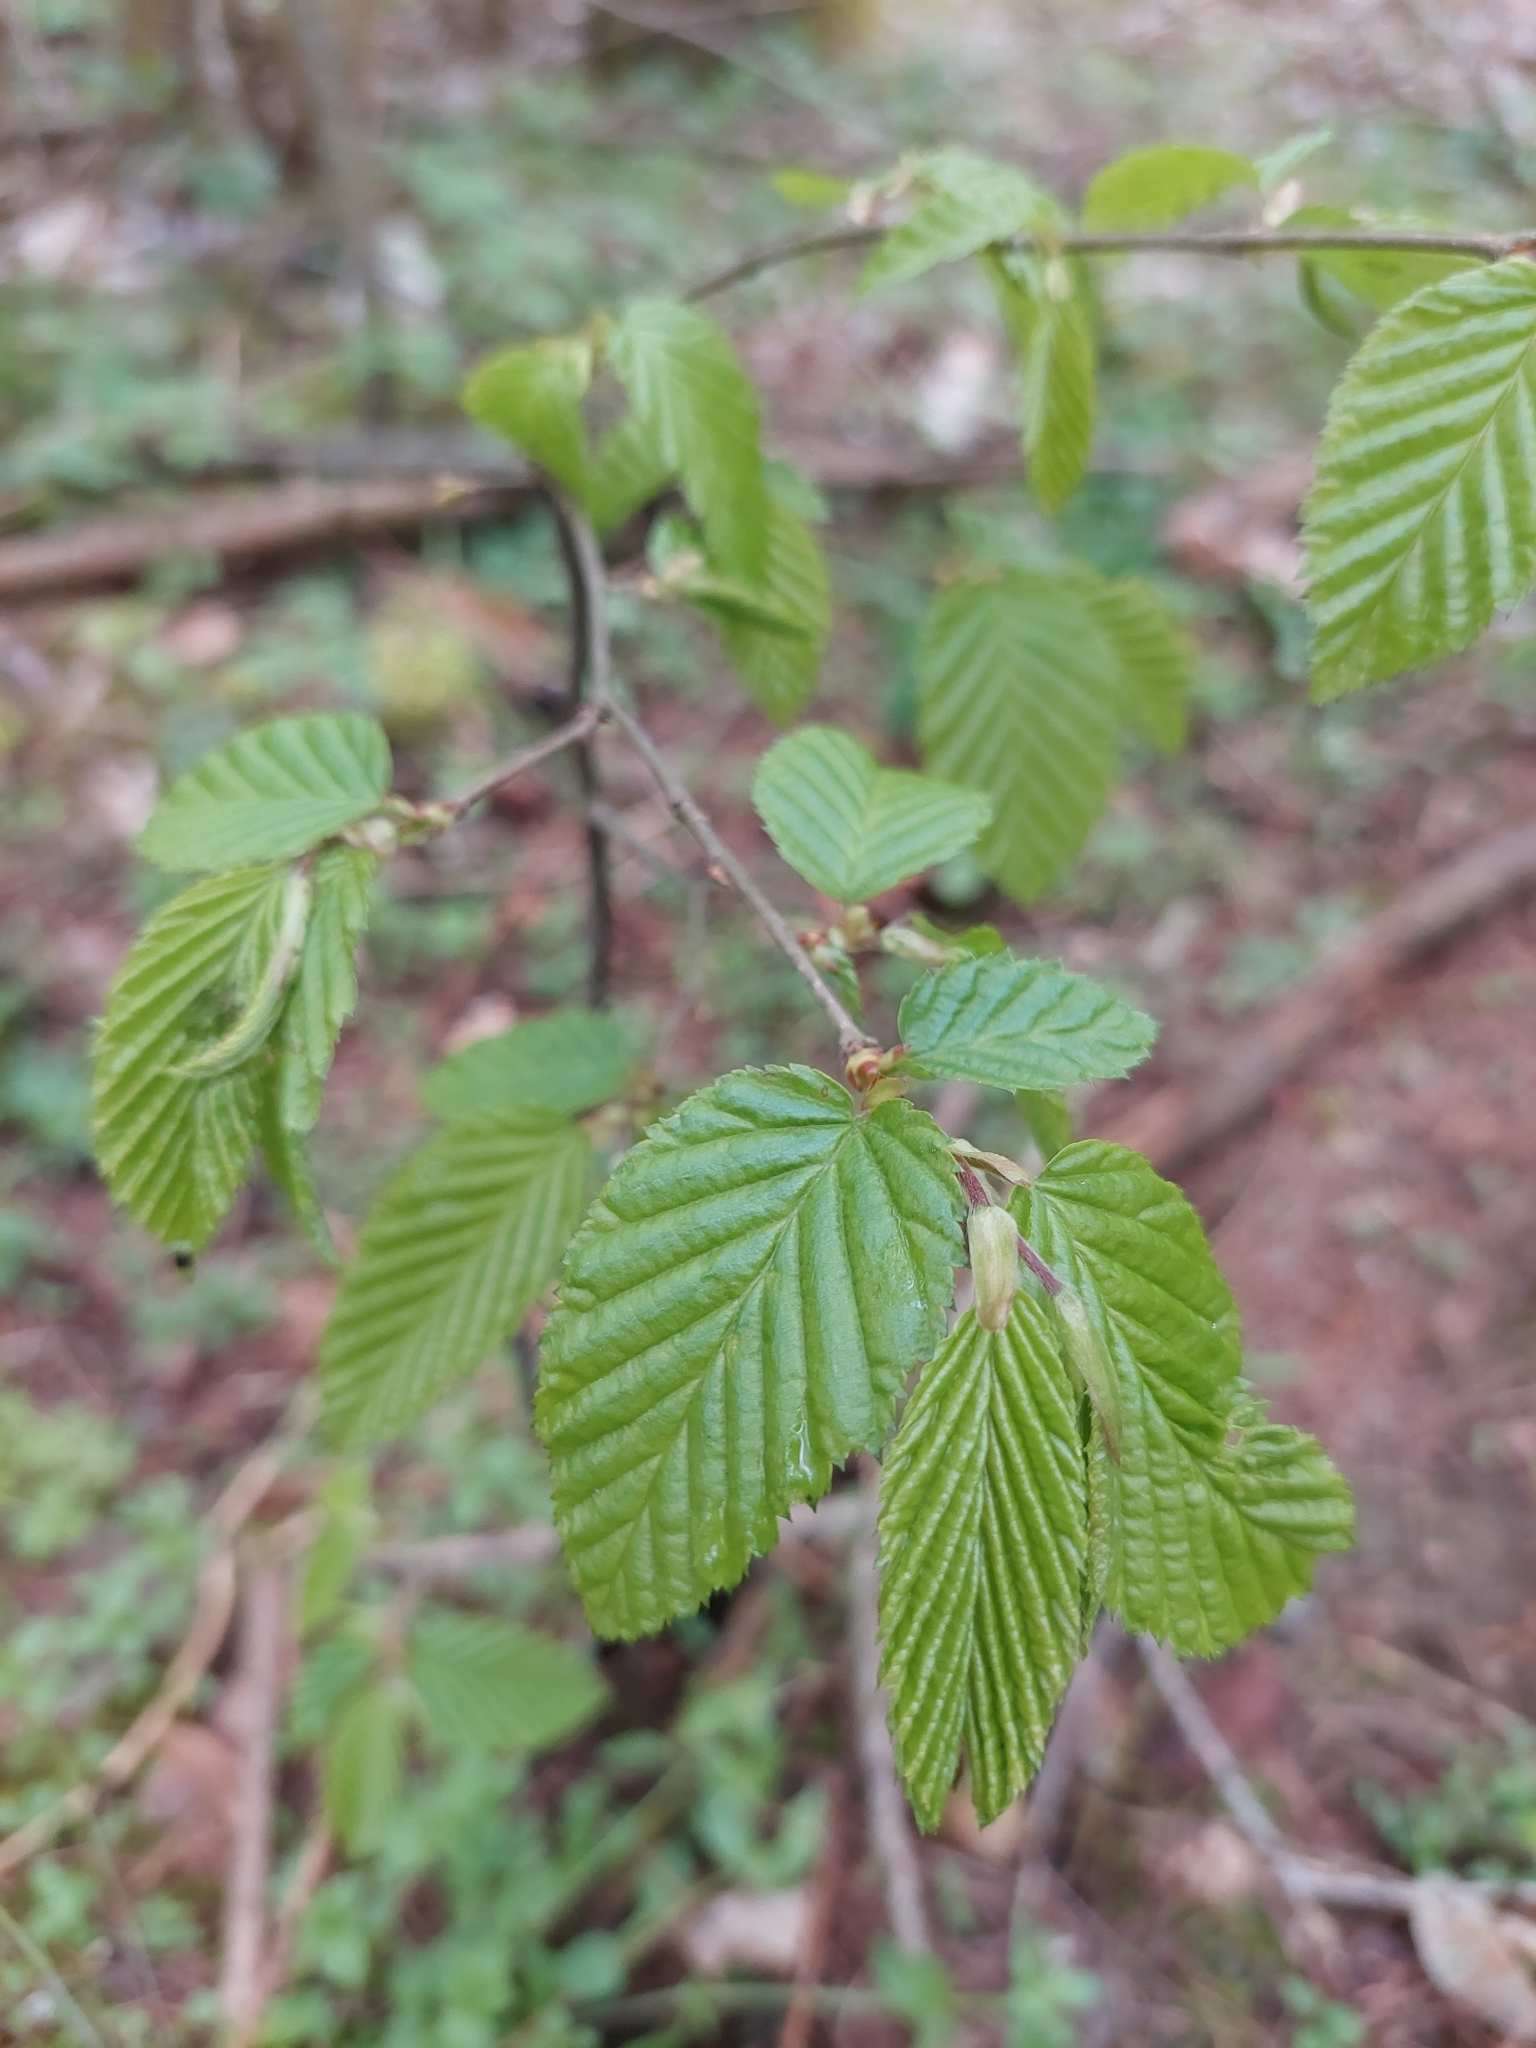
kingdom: Plantae
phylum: Tracheophyta
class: Magnoliopsida
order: Fagales
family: Betulaceae
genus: Carpinus
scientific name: Carpinus betulus
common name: Hornbeam
